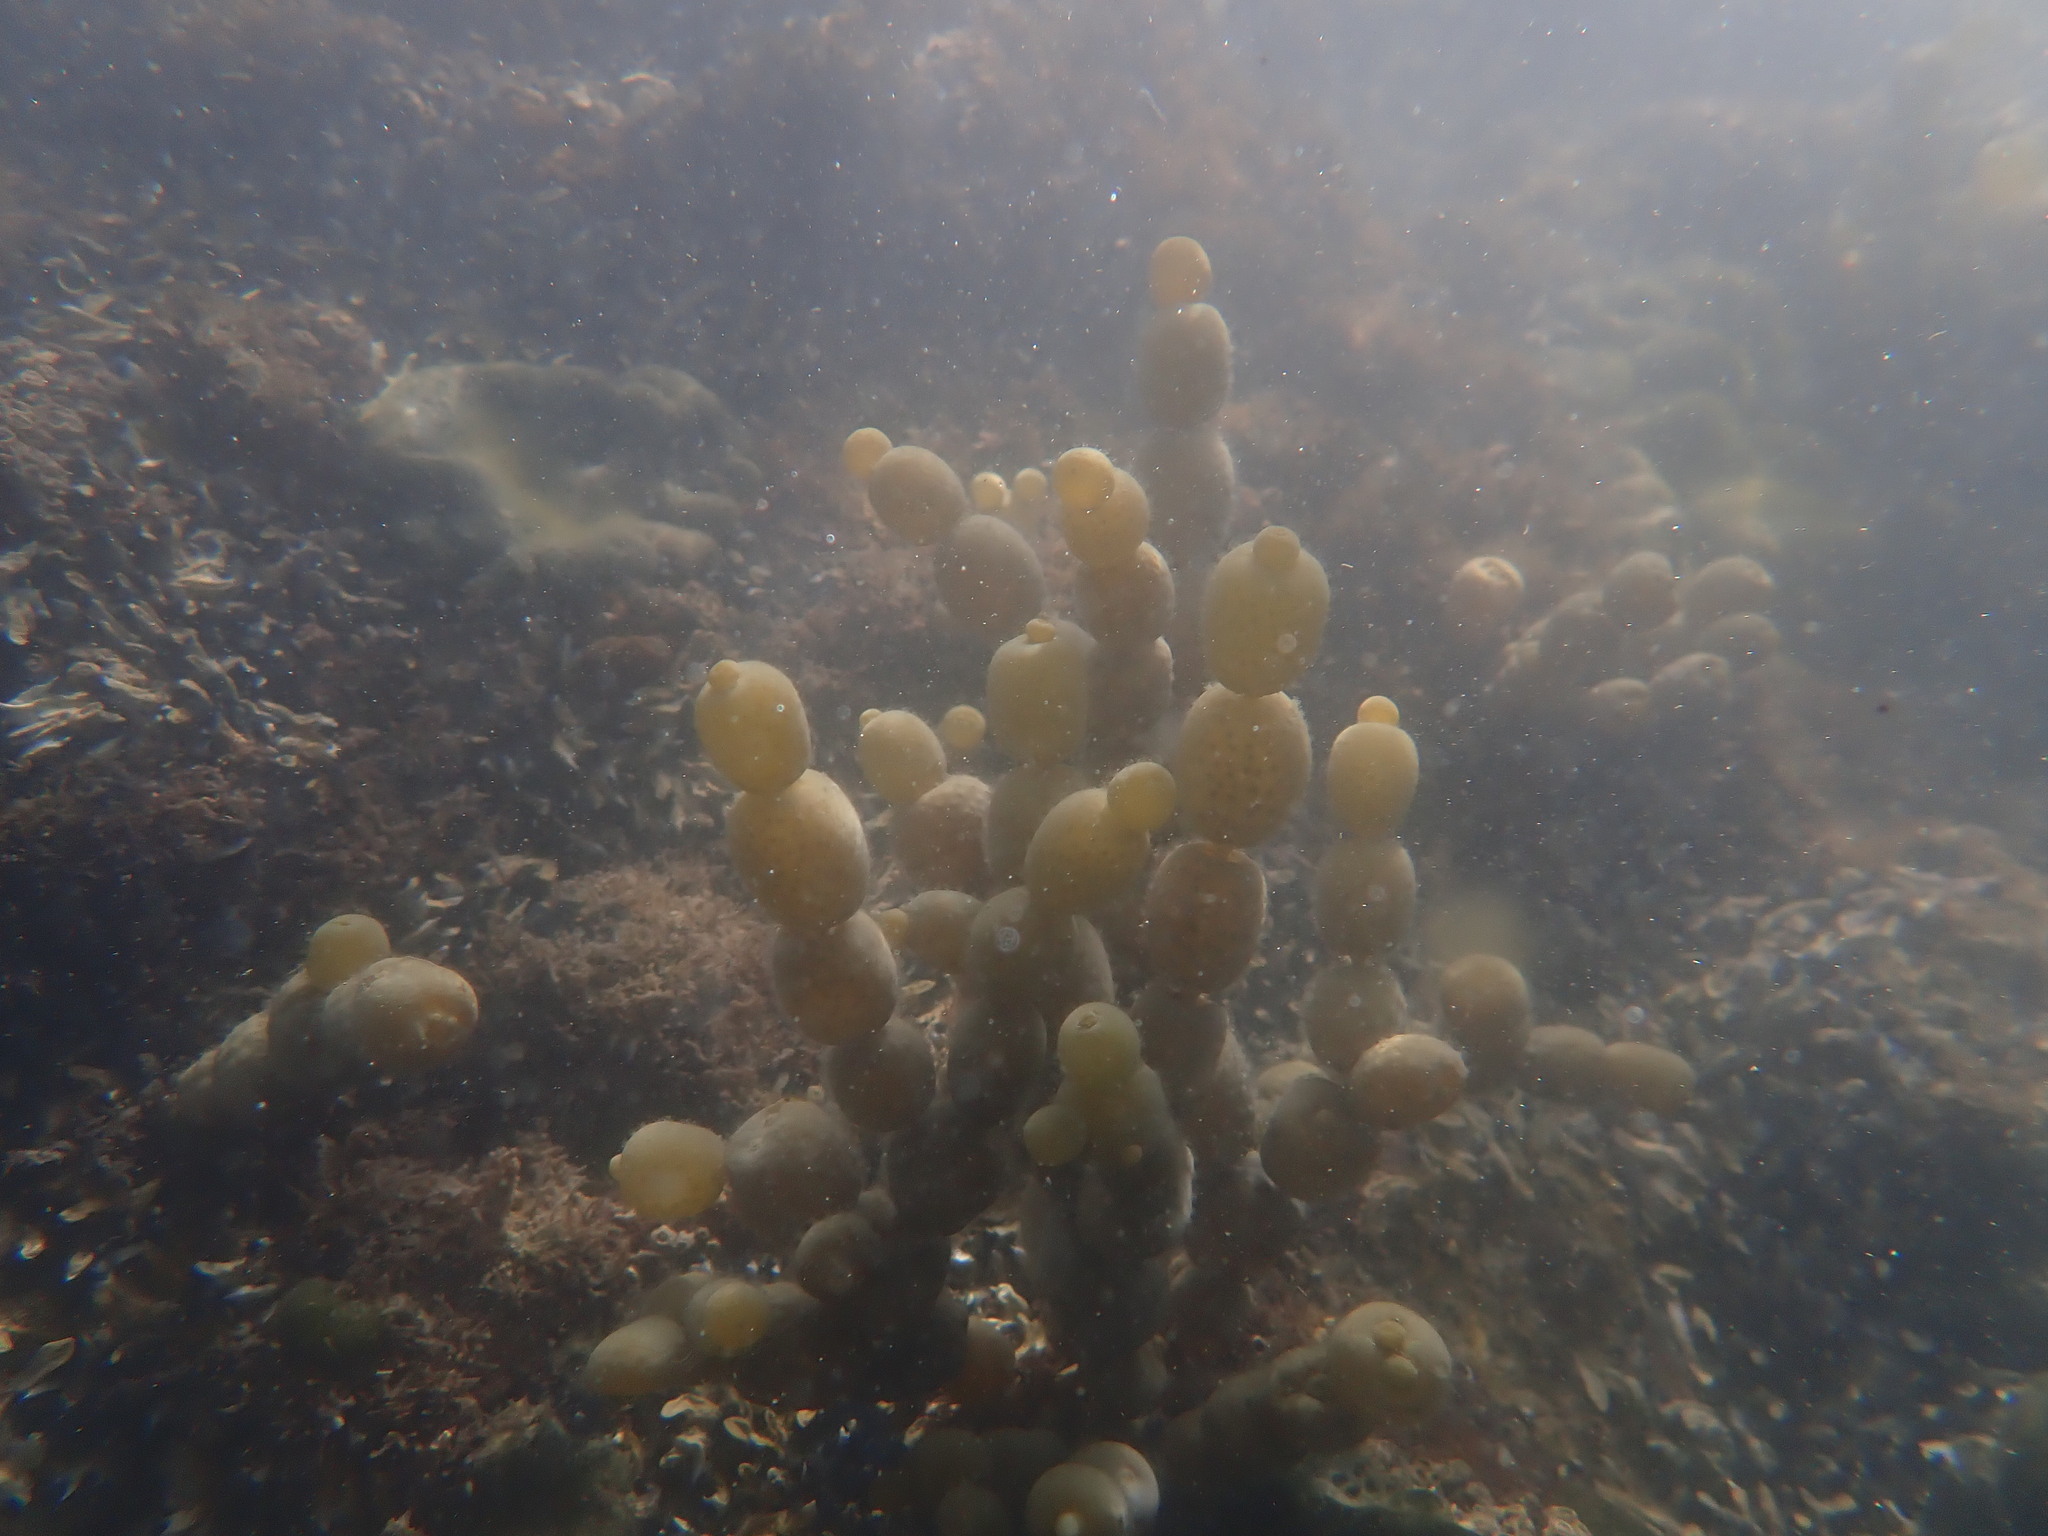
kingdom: Chromista
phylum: Ochrophyta
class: Phaeophyceae
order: Fucales
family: Hormosiraceae
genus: Hormosira
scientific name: Hormosira banksii
